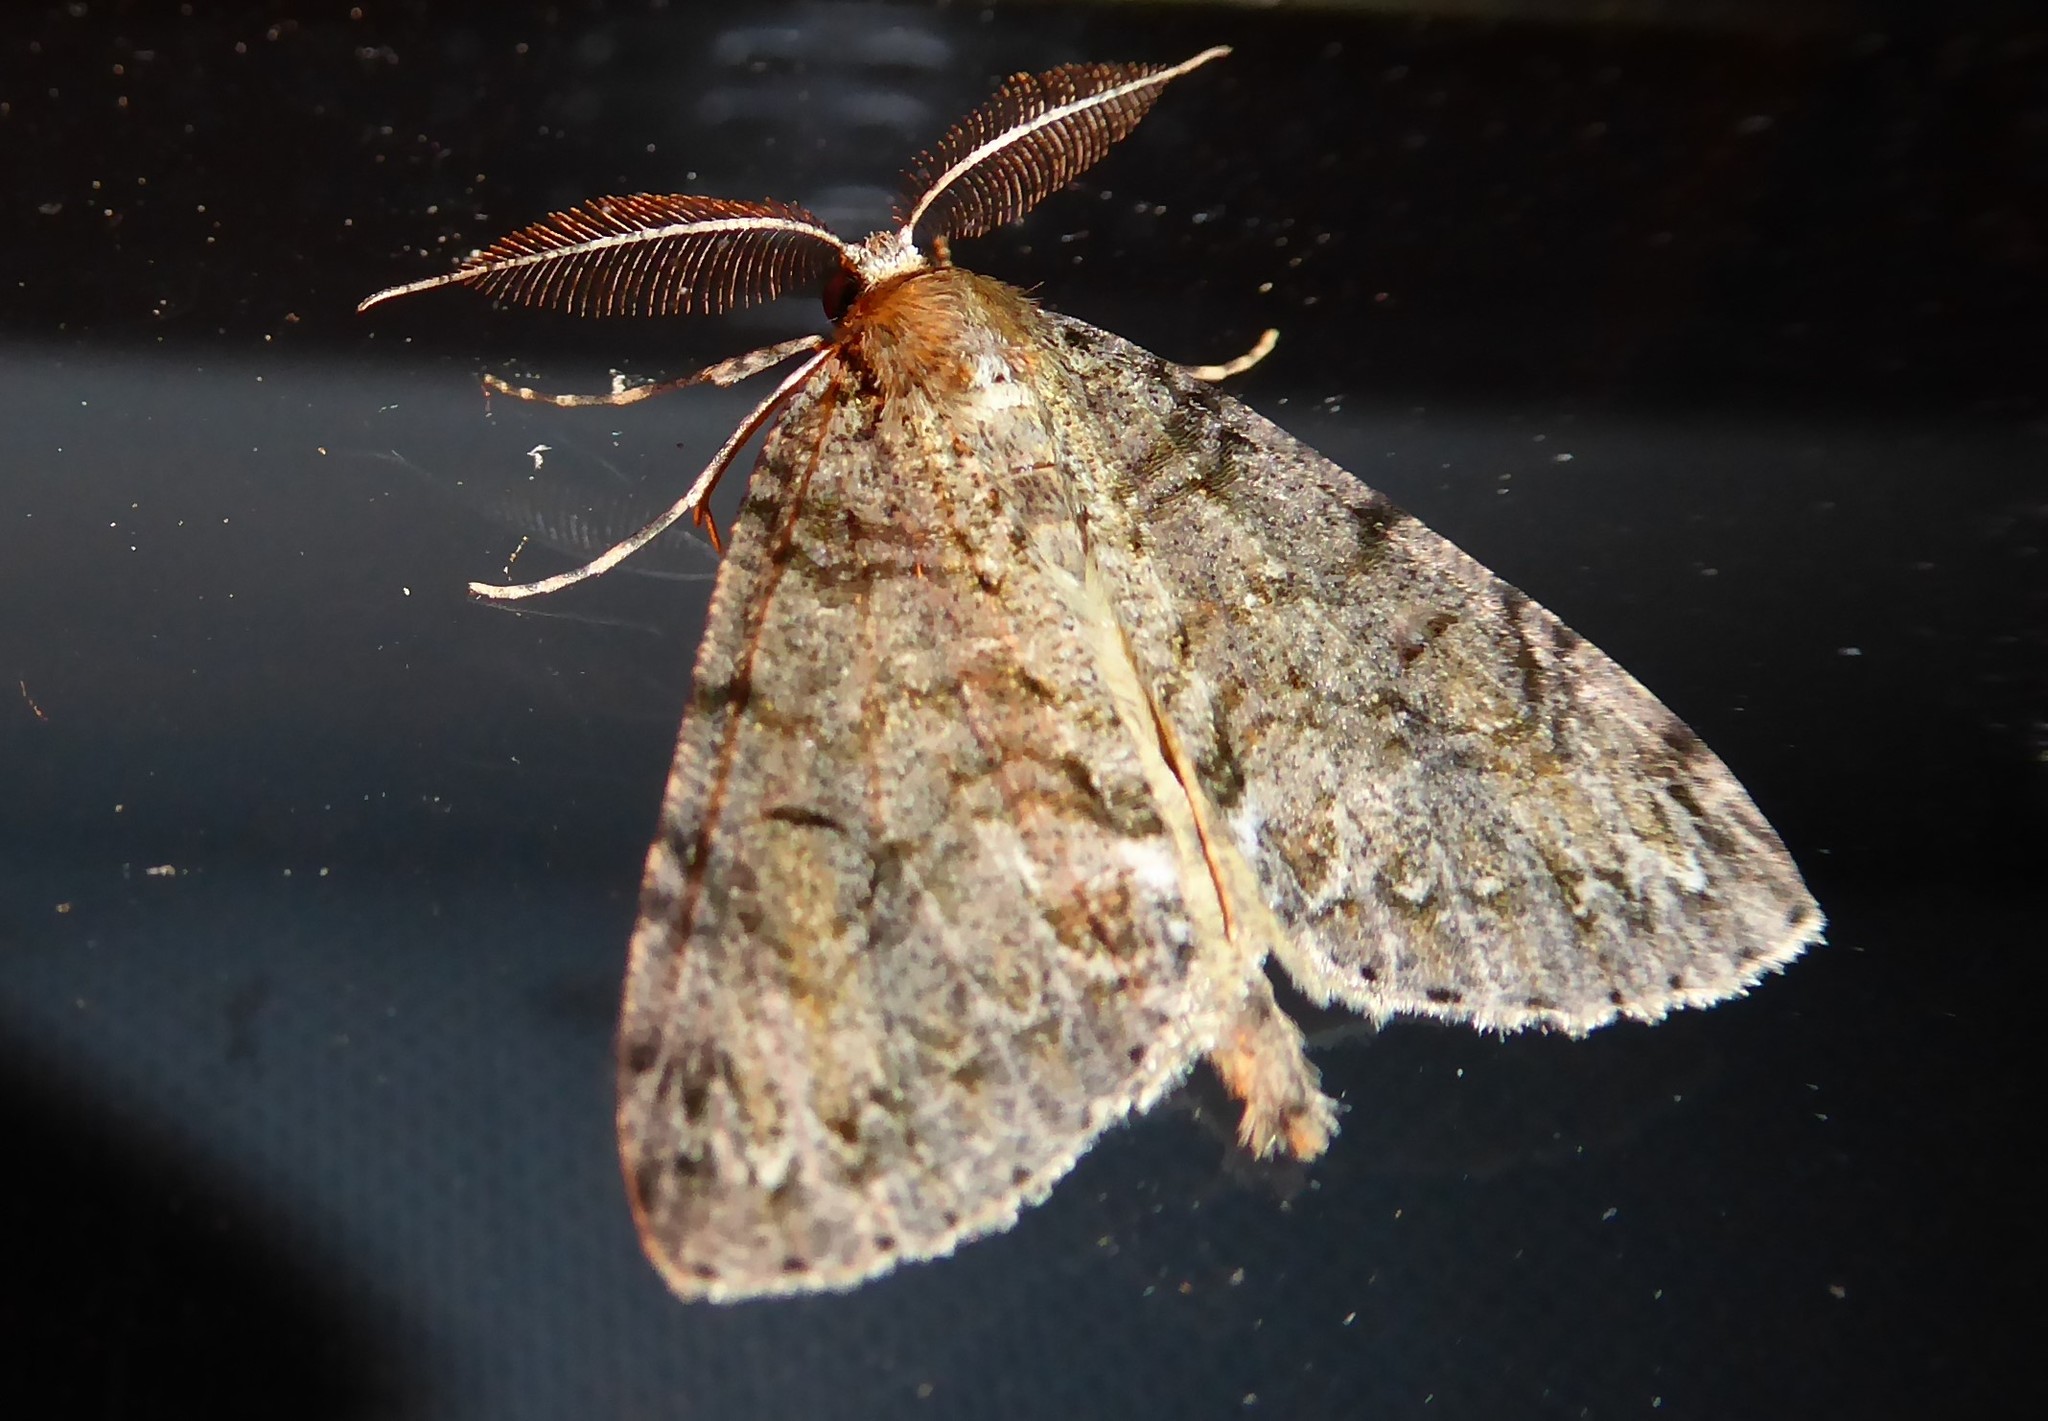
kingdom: Animalia
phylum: Arthropoda
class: Insecta
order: Lepidoptera
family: Geometridae
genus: Pseudocoremia
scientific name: Pseudocoremia suavis
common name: Common forest looper
